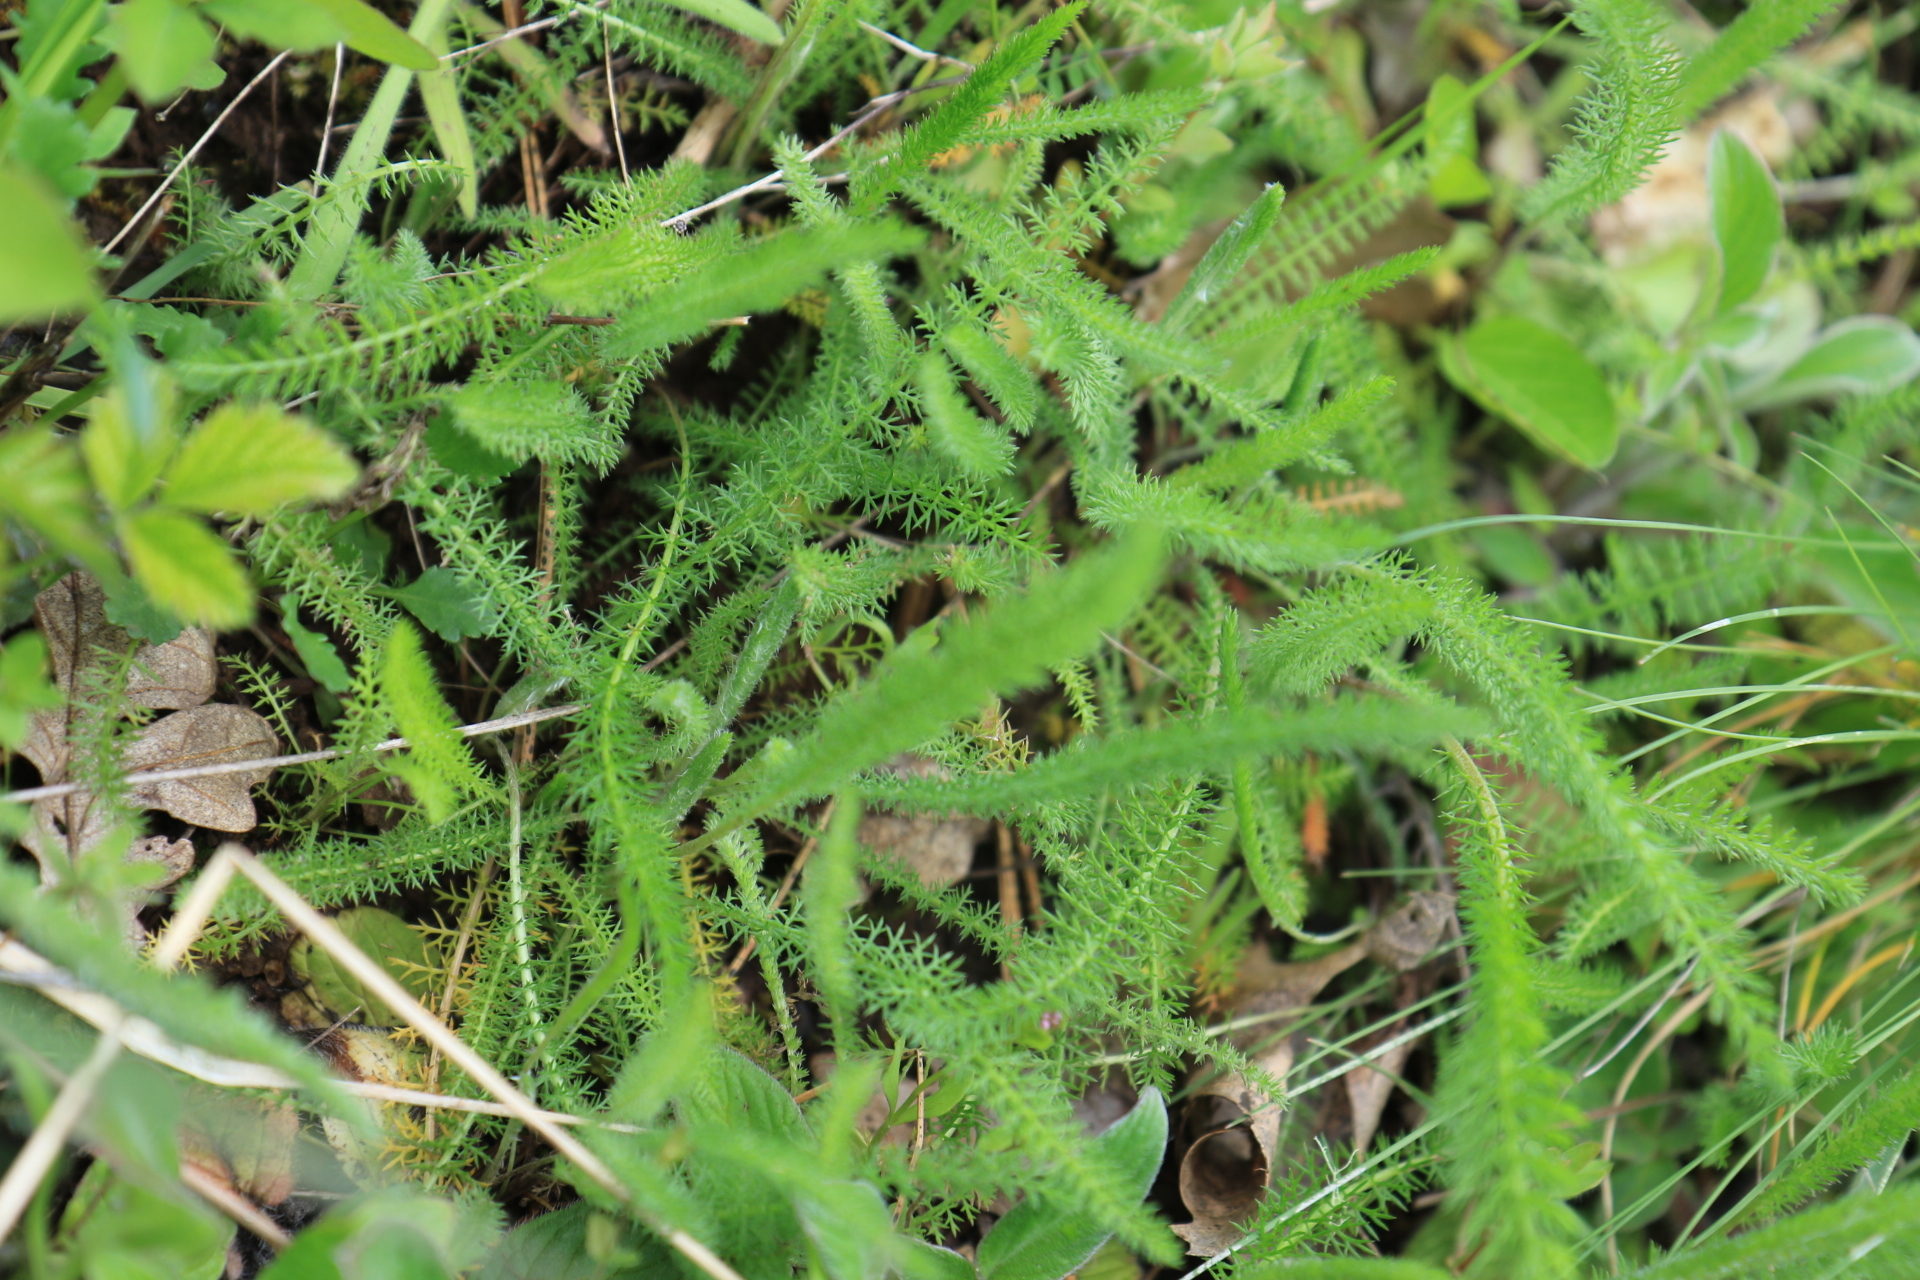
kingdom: Plantae
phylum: Tracheophyta
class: Magnoliopsida
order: Asterales
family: Asteraceae
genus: Achillea
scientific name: Achillea millefolium
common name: Yarrow
